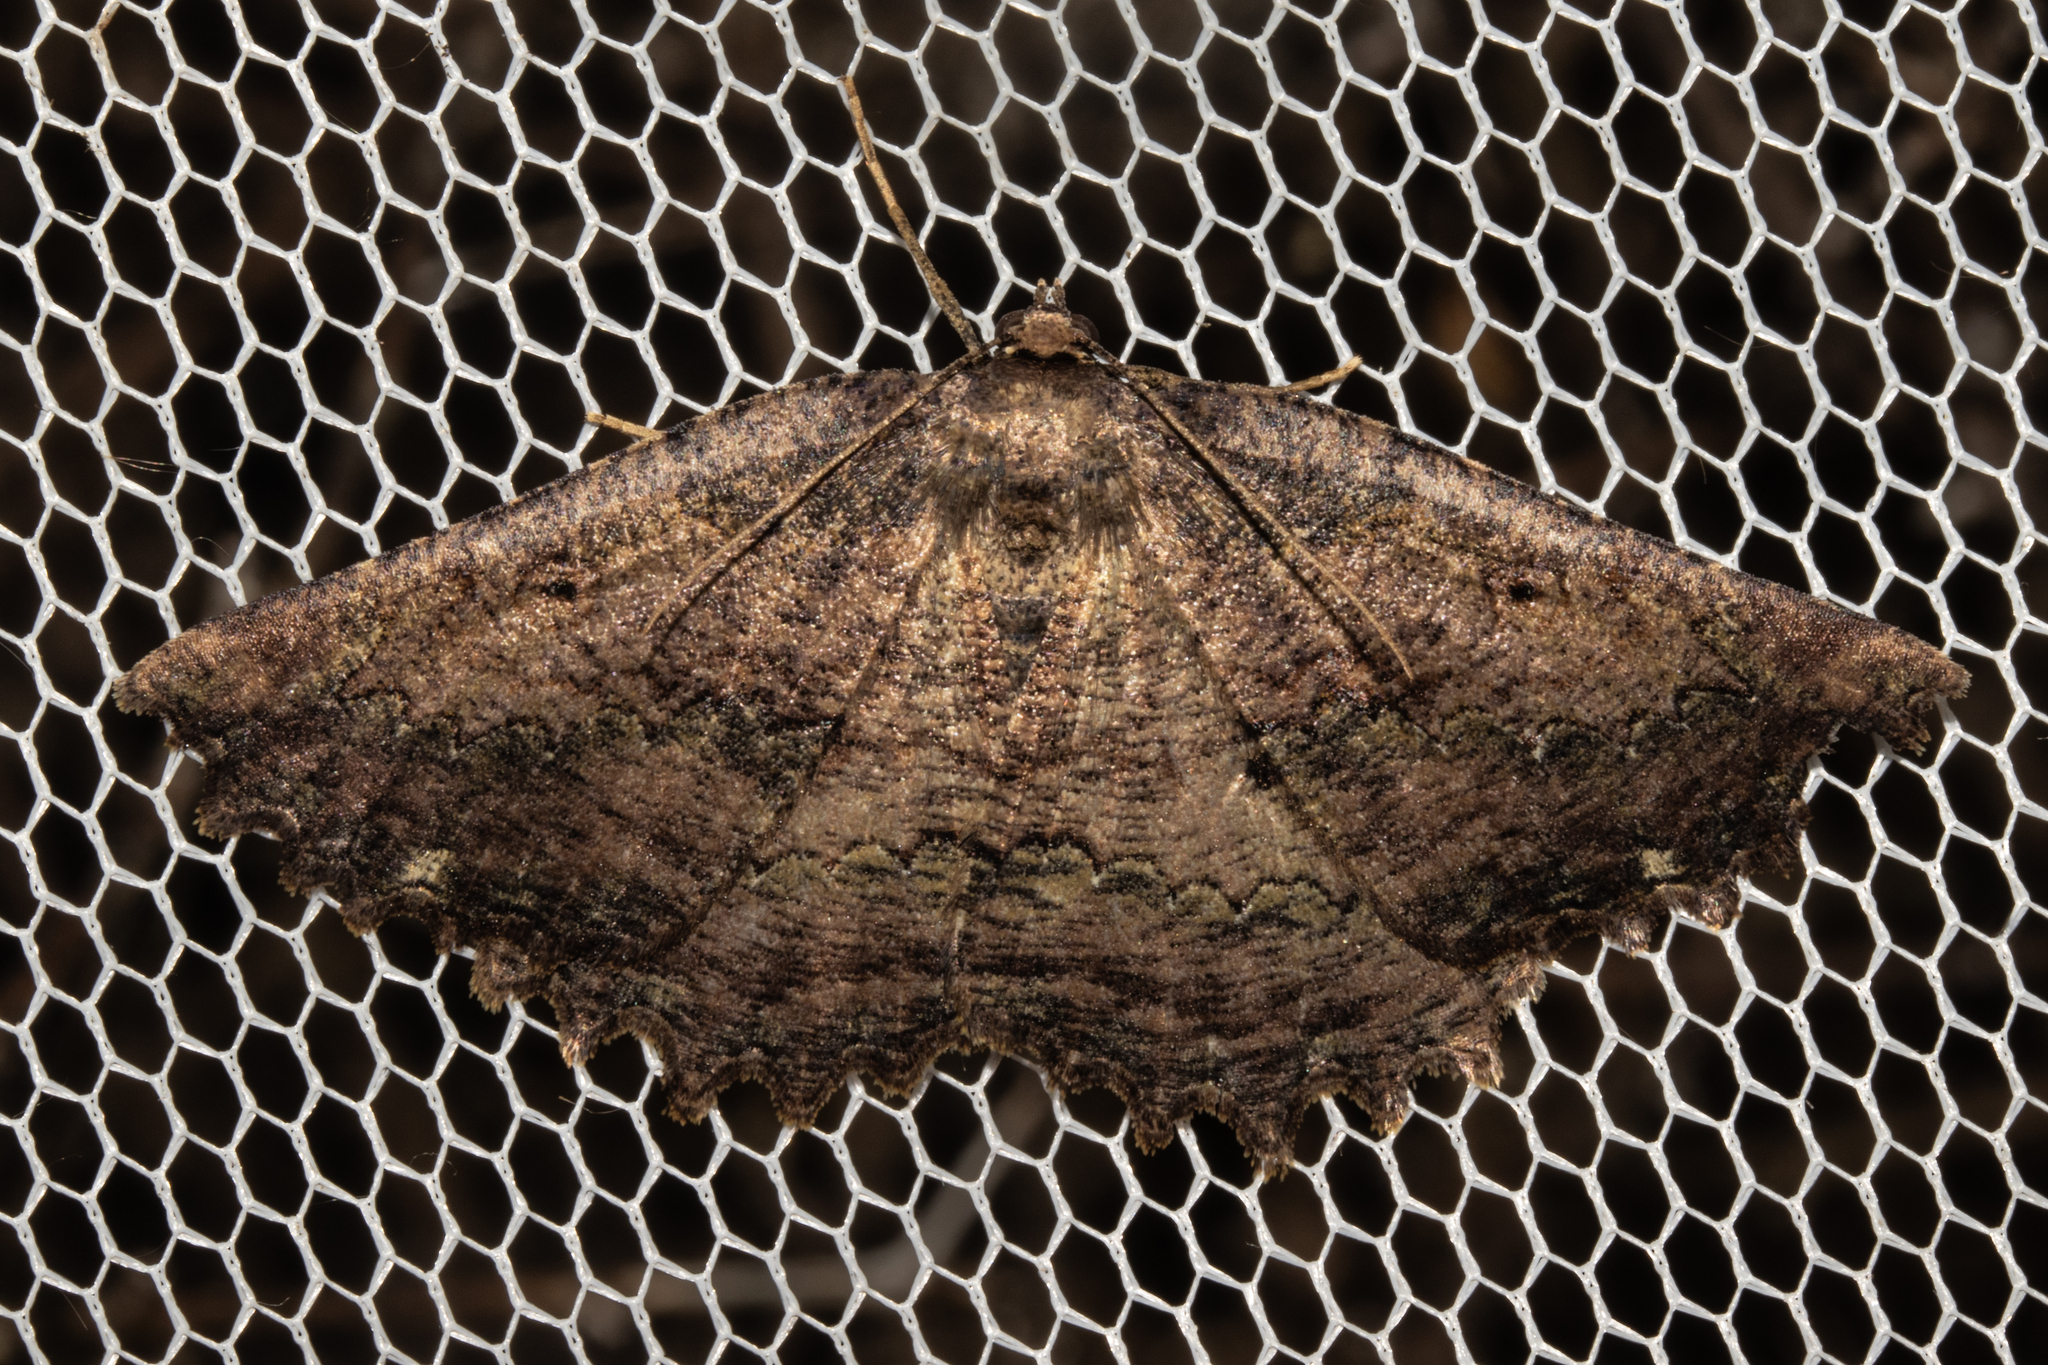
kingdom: Animalia
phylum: Arthropoda
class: Insecta
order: Lepidoptera
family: Geometridae
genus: Gellonia
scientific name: Gellonia pannularia
